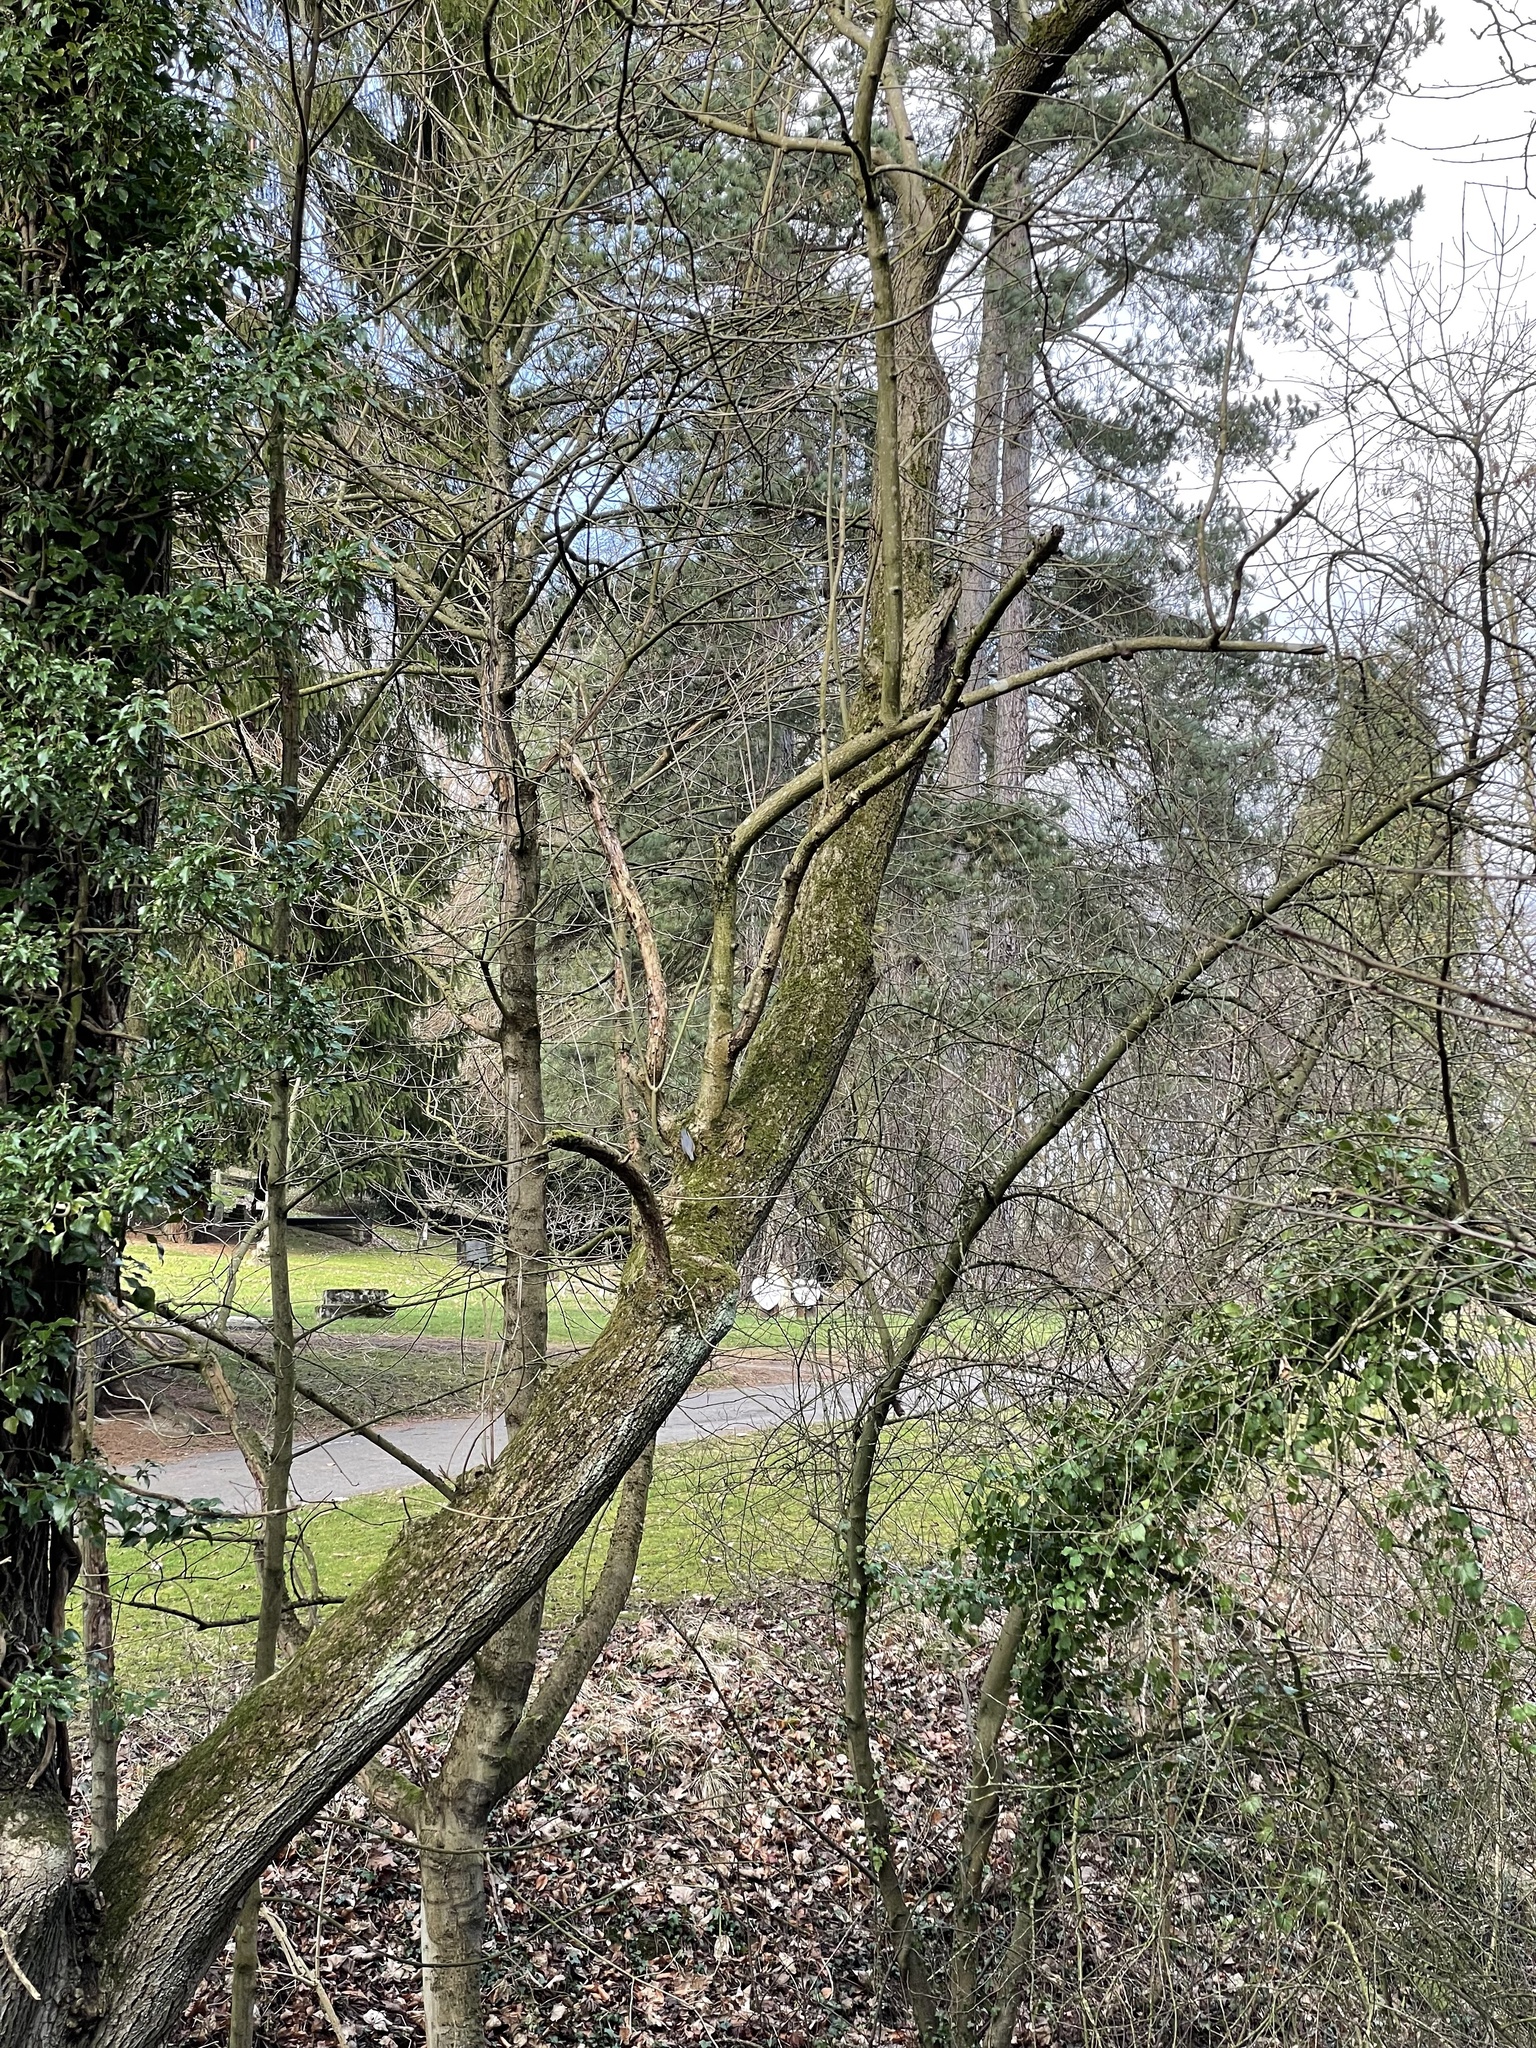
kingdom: Animalia
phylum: Chordata
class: Aves
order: Passeriformes
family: Sittidae
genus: Sitta
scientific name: Sitta europaea
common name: Eurasian nuthatch
